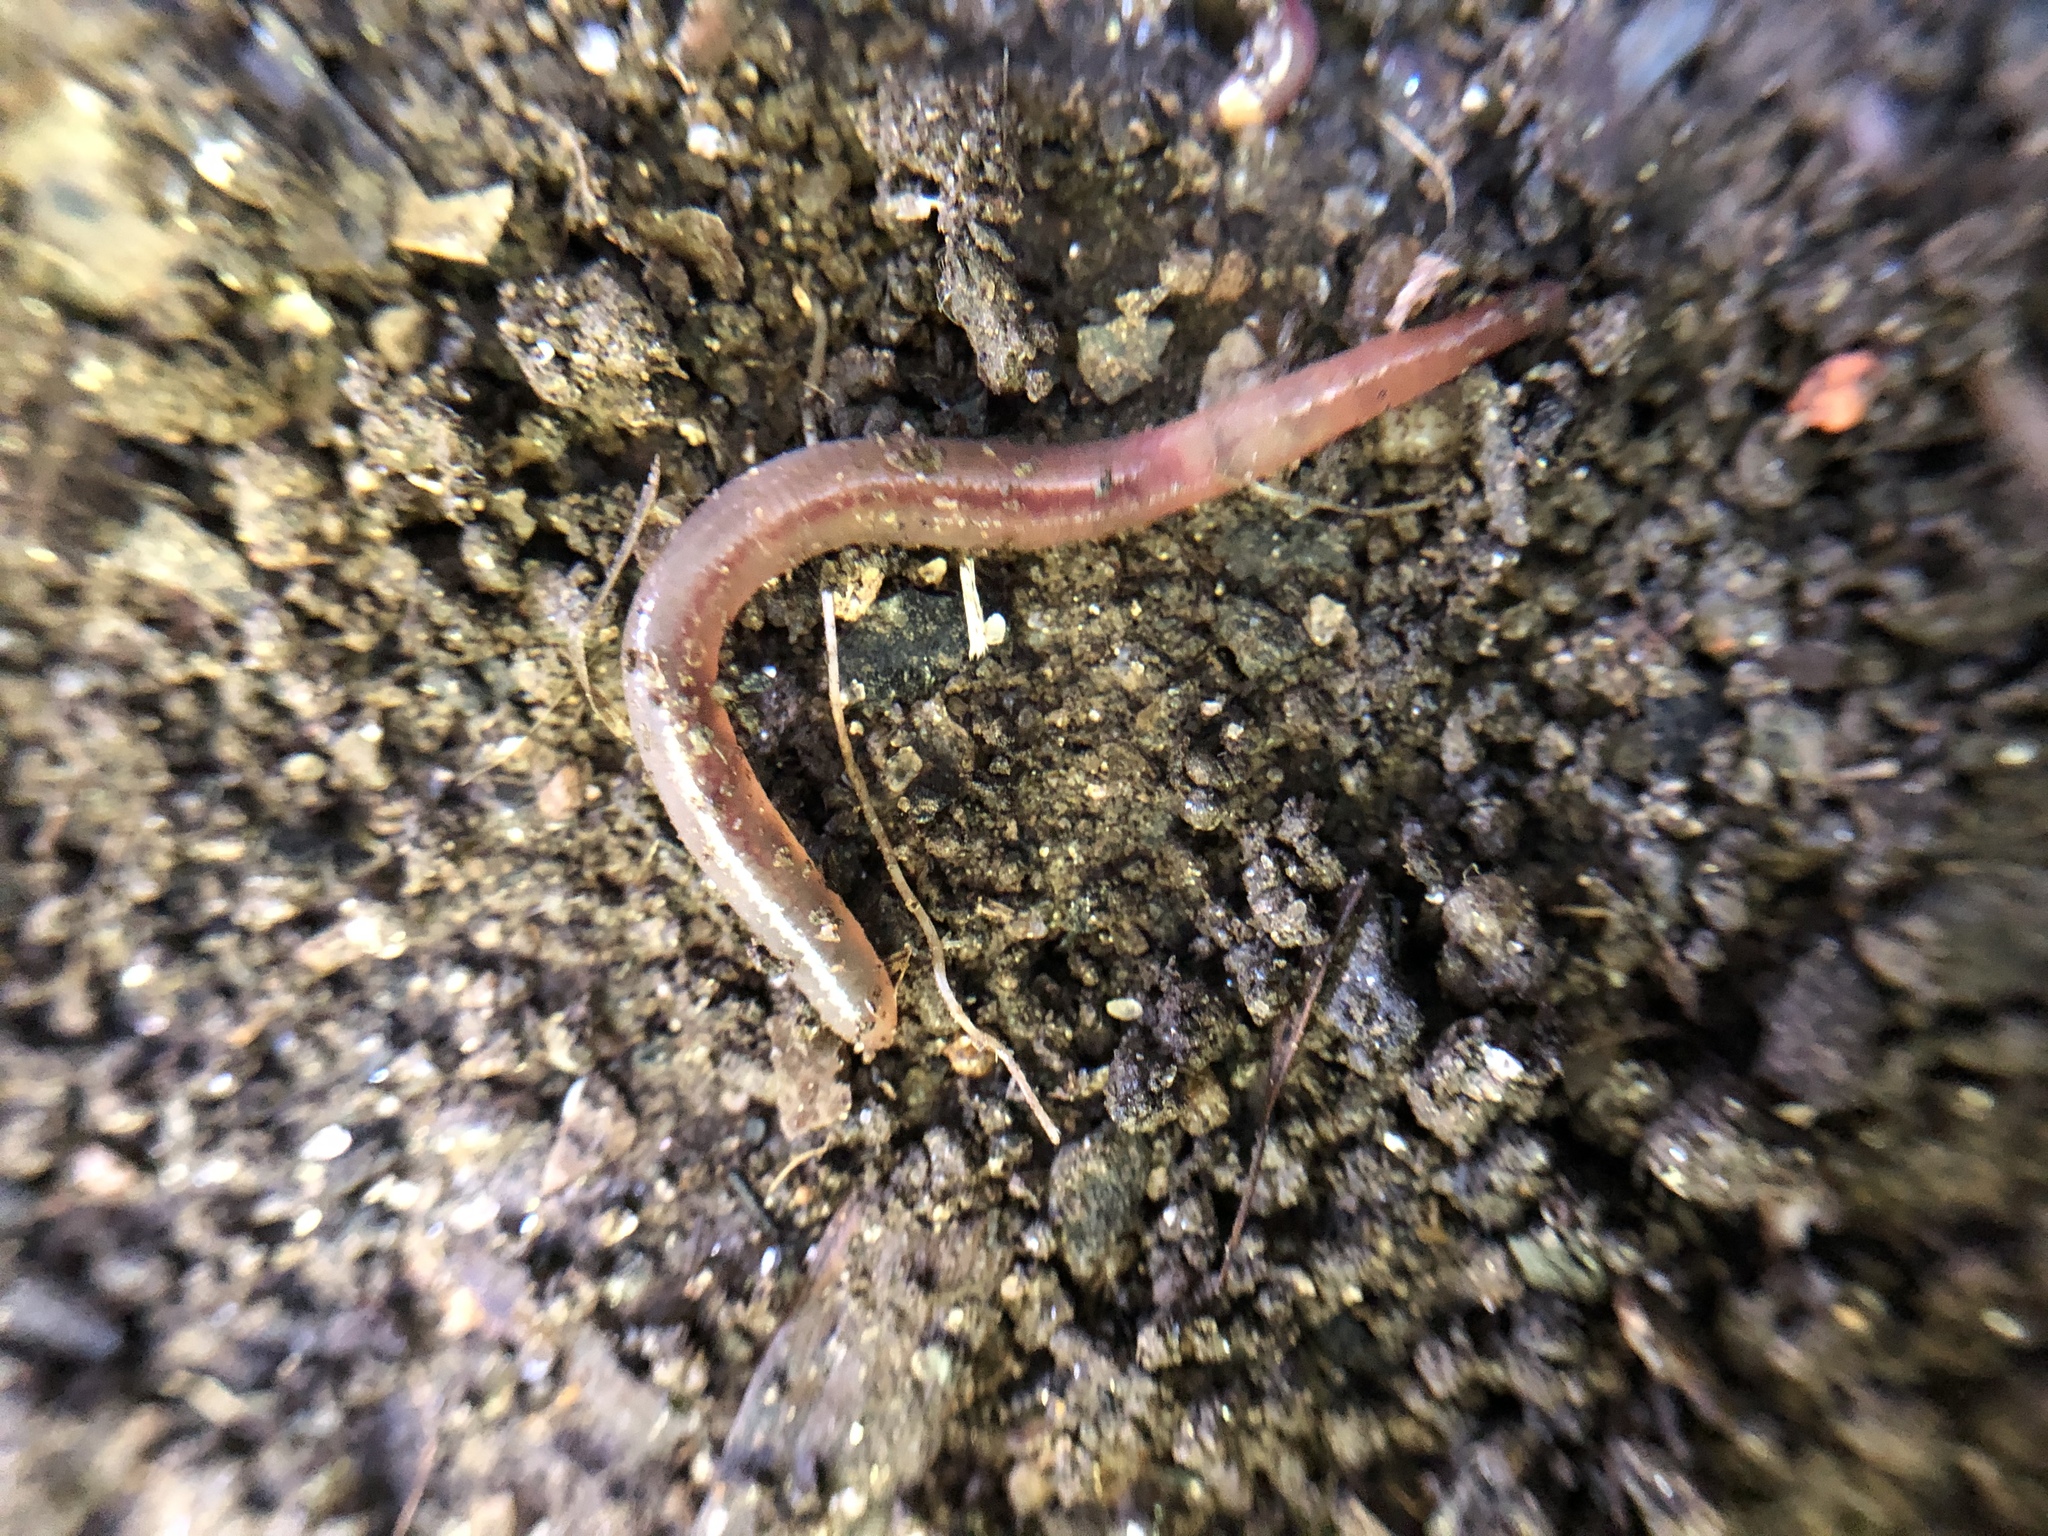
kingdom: Animalia
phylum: Annelida
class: Clitellata
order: Crassiclitellata
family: Lumbricidae
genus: Lumbricus
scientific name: Lumbricus terrestris
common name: Common earthworm
